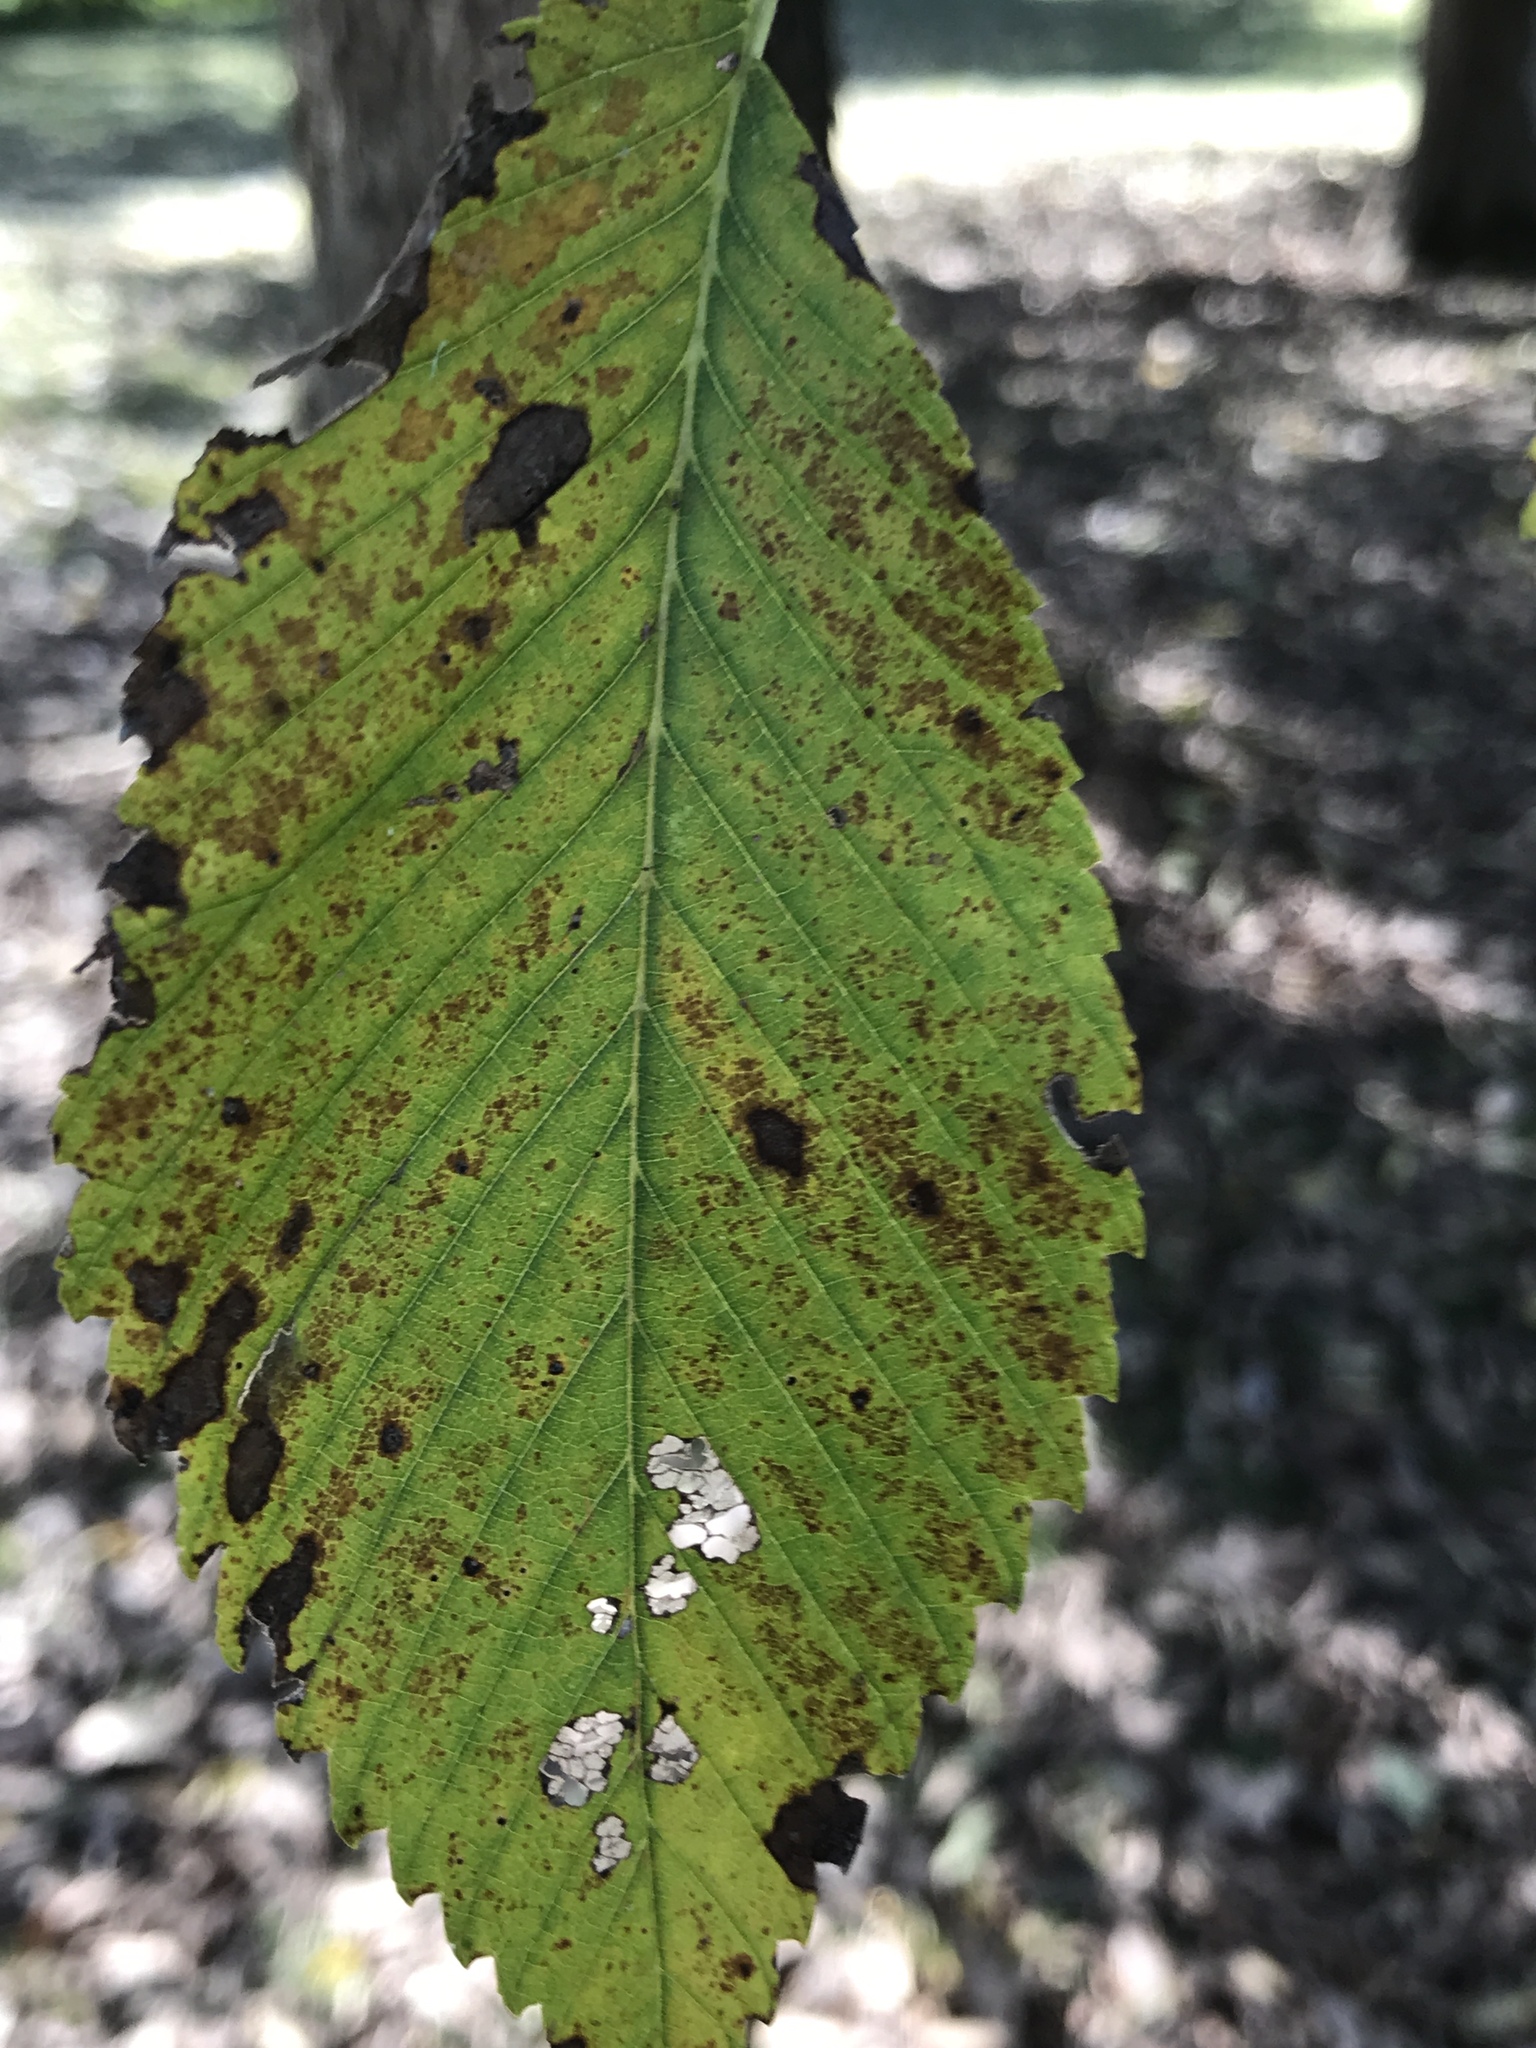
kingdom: Plantae
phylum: Tracheophyta
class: Magnoliopsida
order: Rosales
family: Ulmaceae
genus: Ulmus
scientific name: Ulmus americana
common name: American elm
